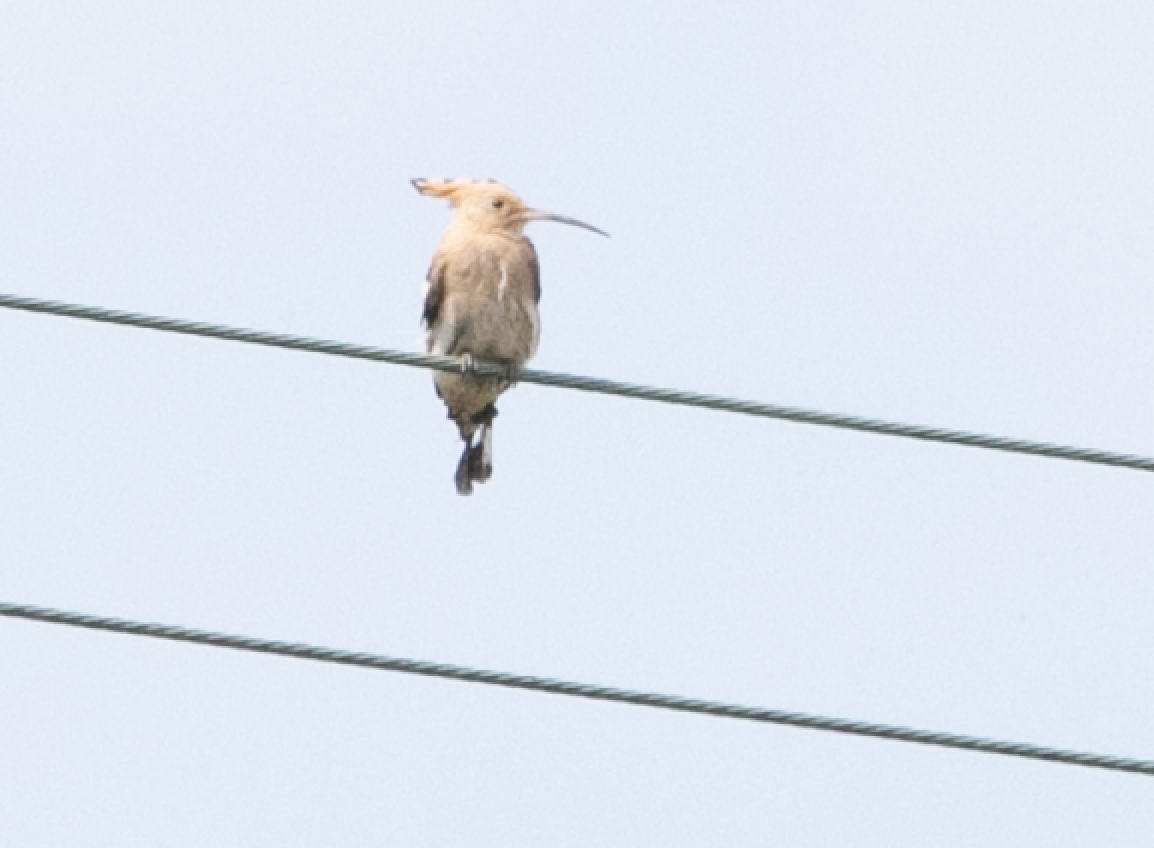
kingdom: Animalia
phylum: Chordata
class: Aves
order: Bucerotiformes
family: Upupidae
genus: Upupa
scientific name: Upupa epops
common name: Eurasian hoopoe
